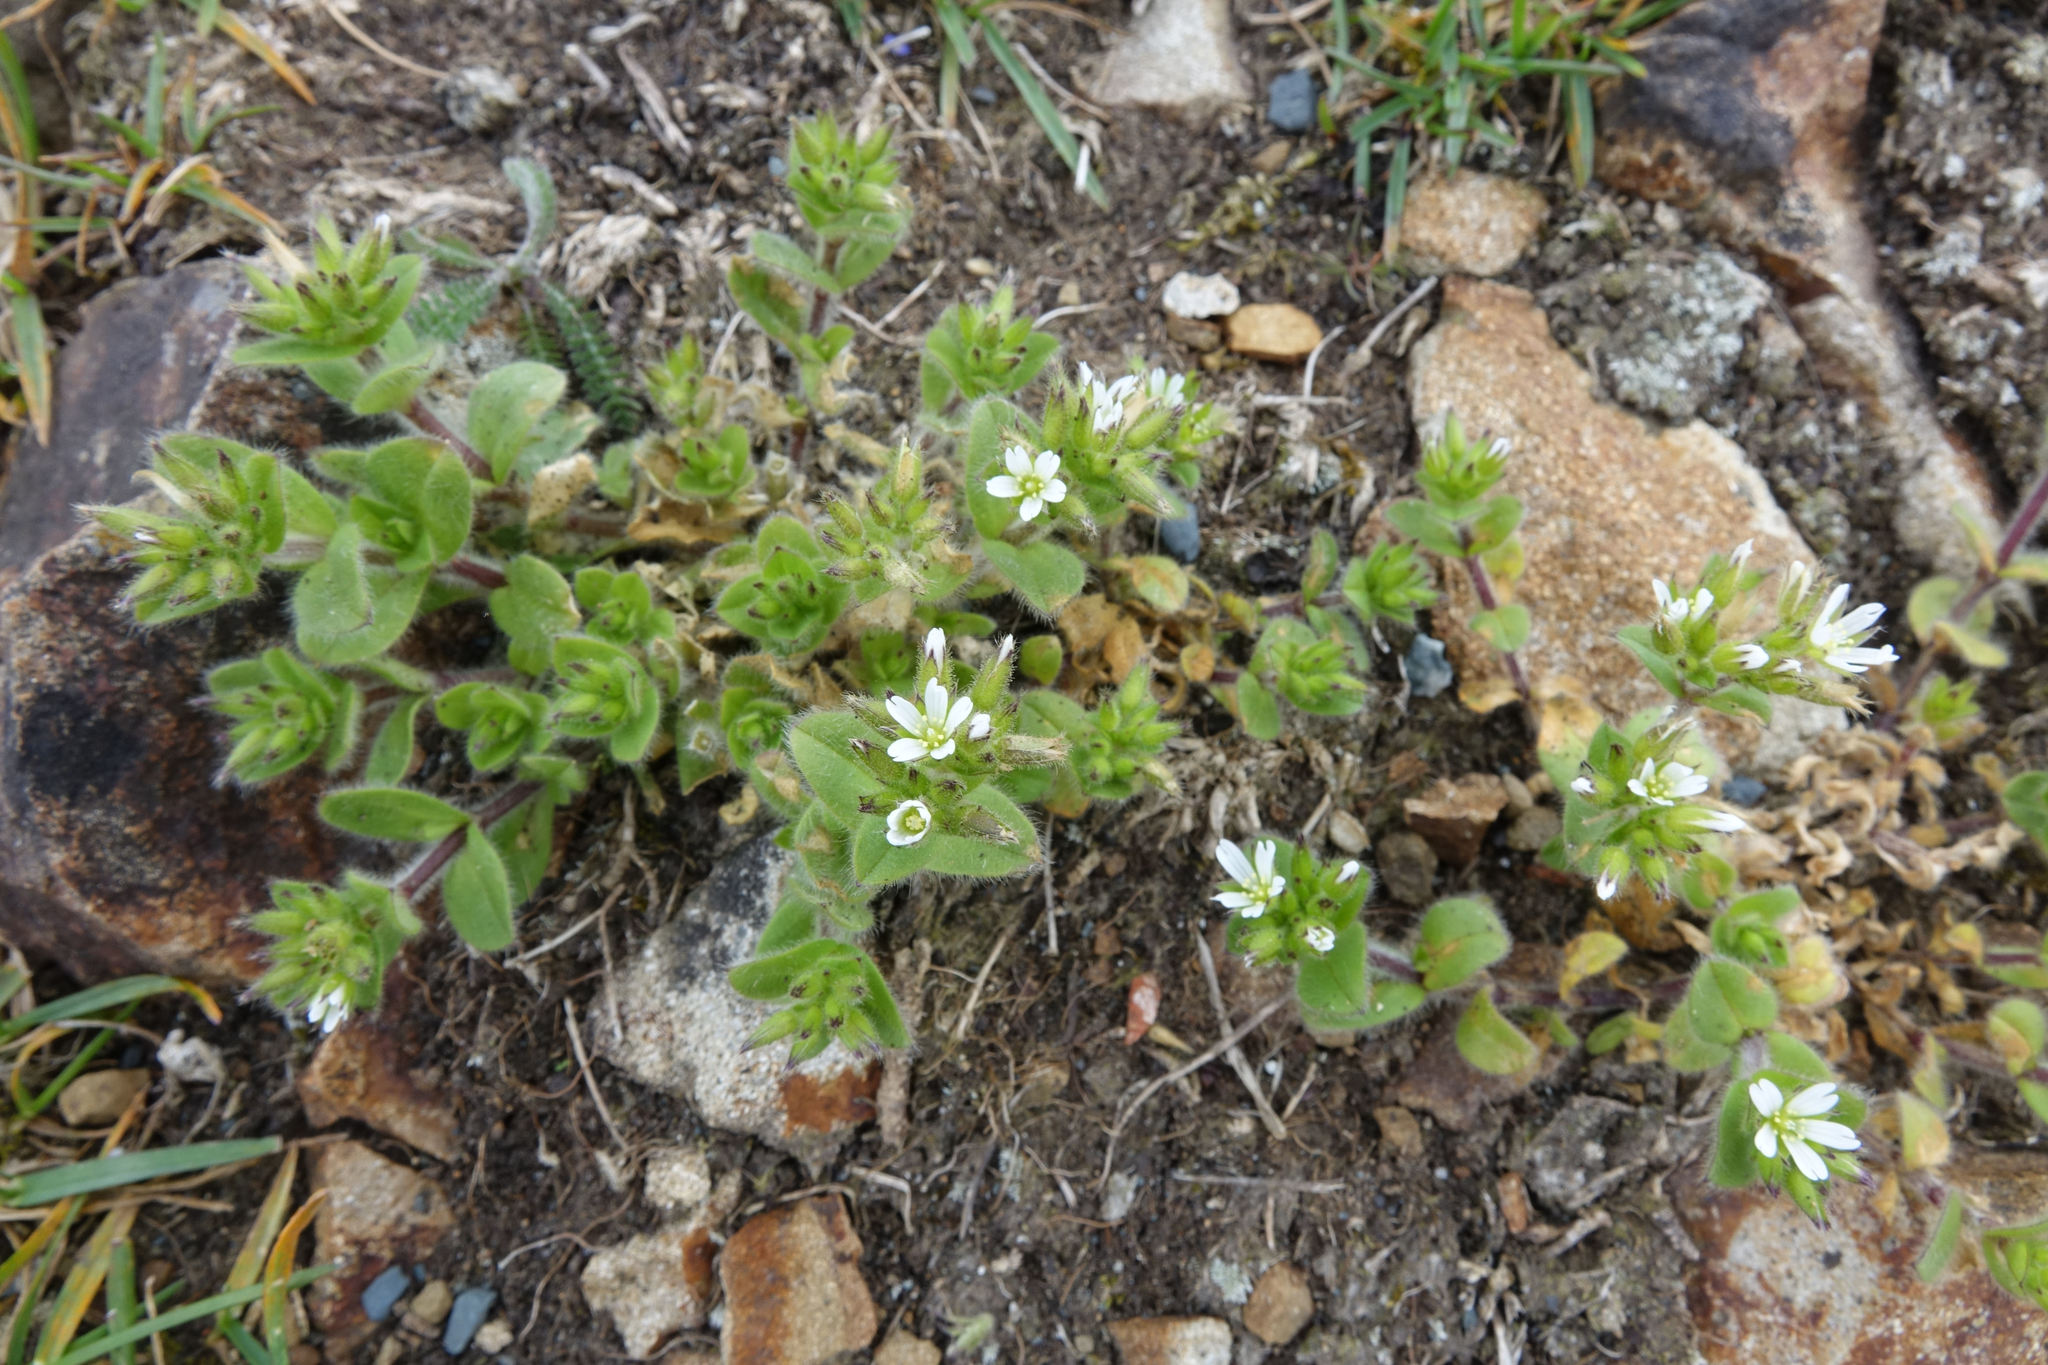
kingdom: Plantae
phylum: Tracheophyta
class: Magnoliopsida
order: Caryophyllales
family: Caryophyllaceae
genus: Cerastium
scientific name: Cerastium glomeratum
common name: Sticky chickweed
